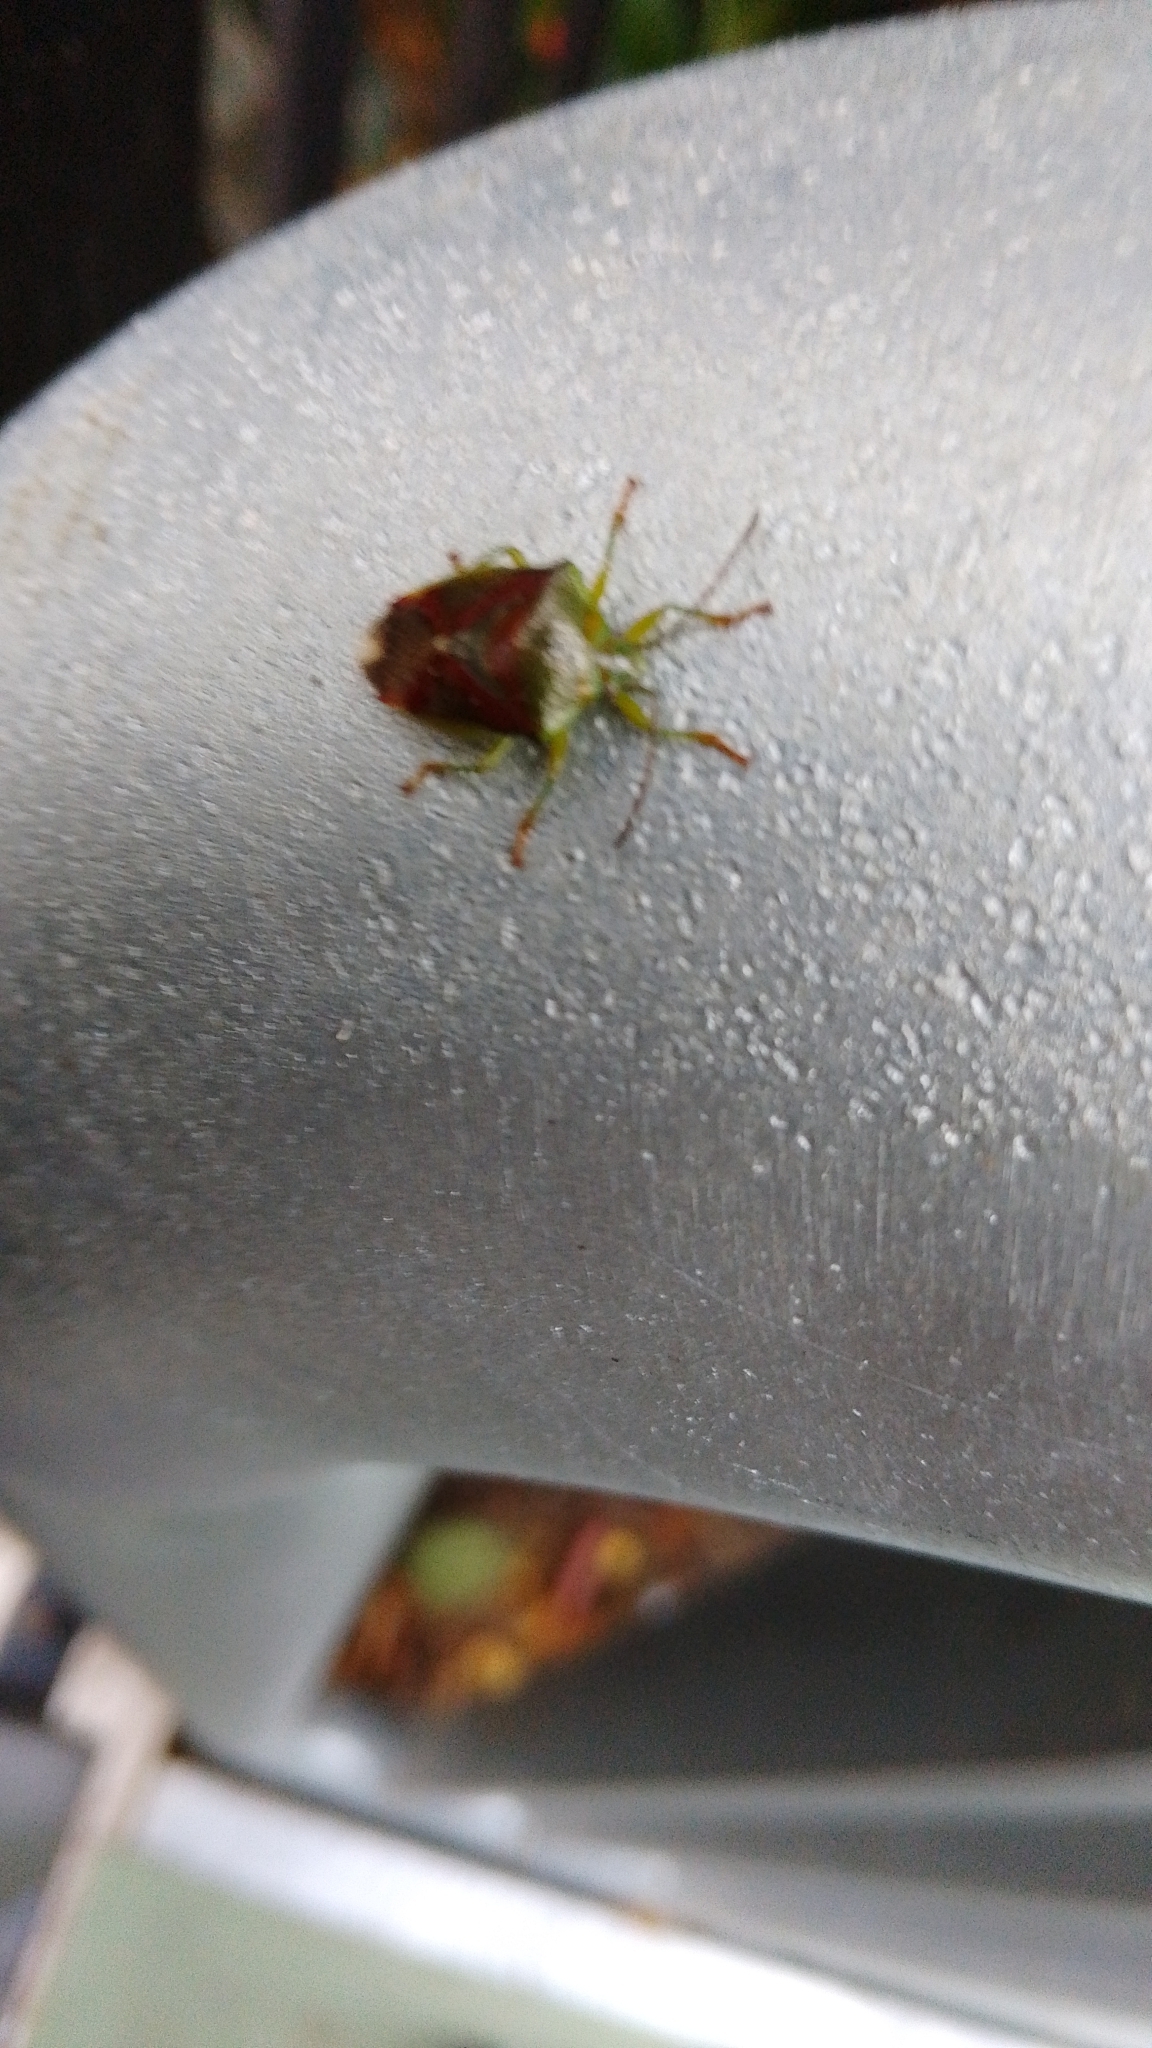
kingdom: Animalia
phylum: Arthropoda
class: Insecta
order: Hemiptera
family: Acanthosomatidae
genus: Elasmostethus
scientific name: Elasmostethus interstinctus
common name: Birch shieldbug
